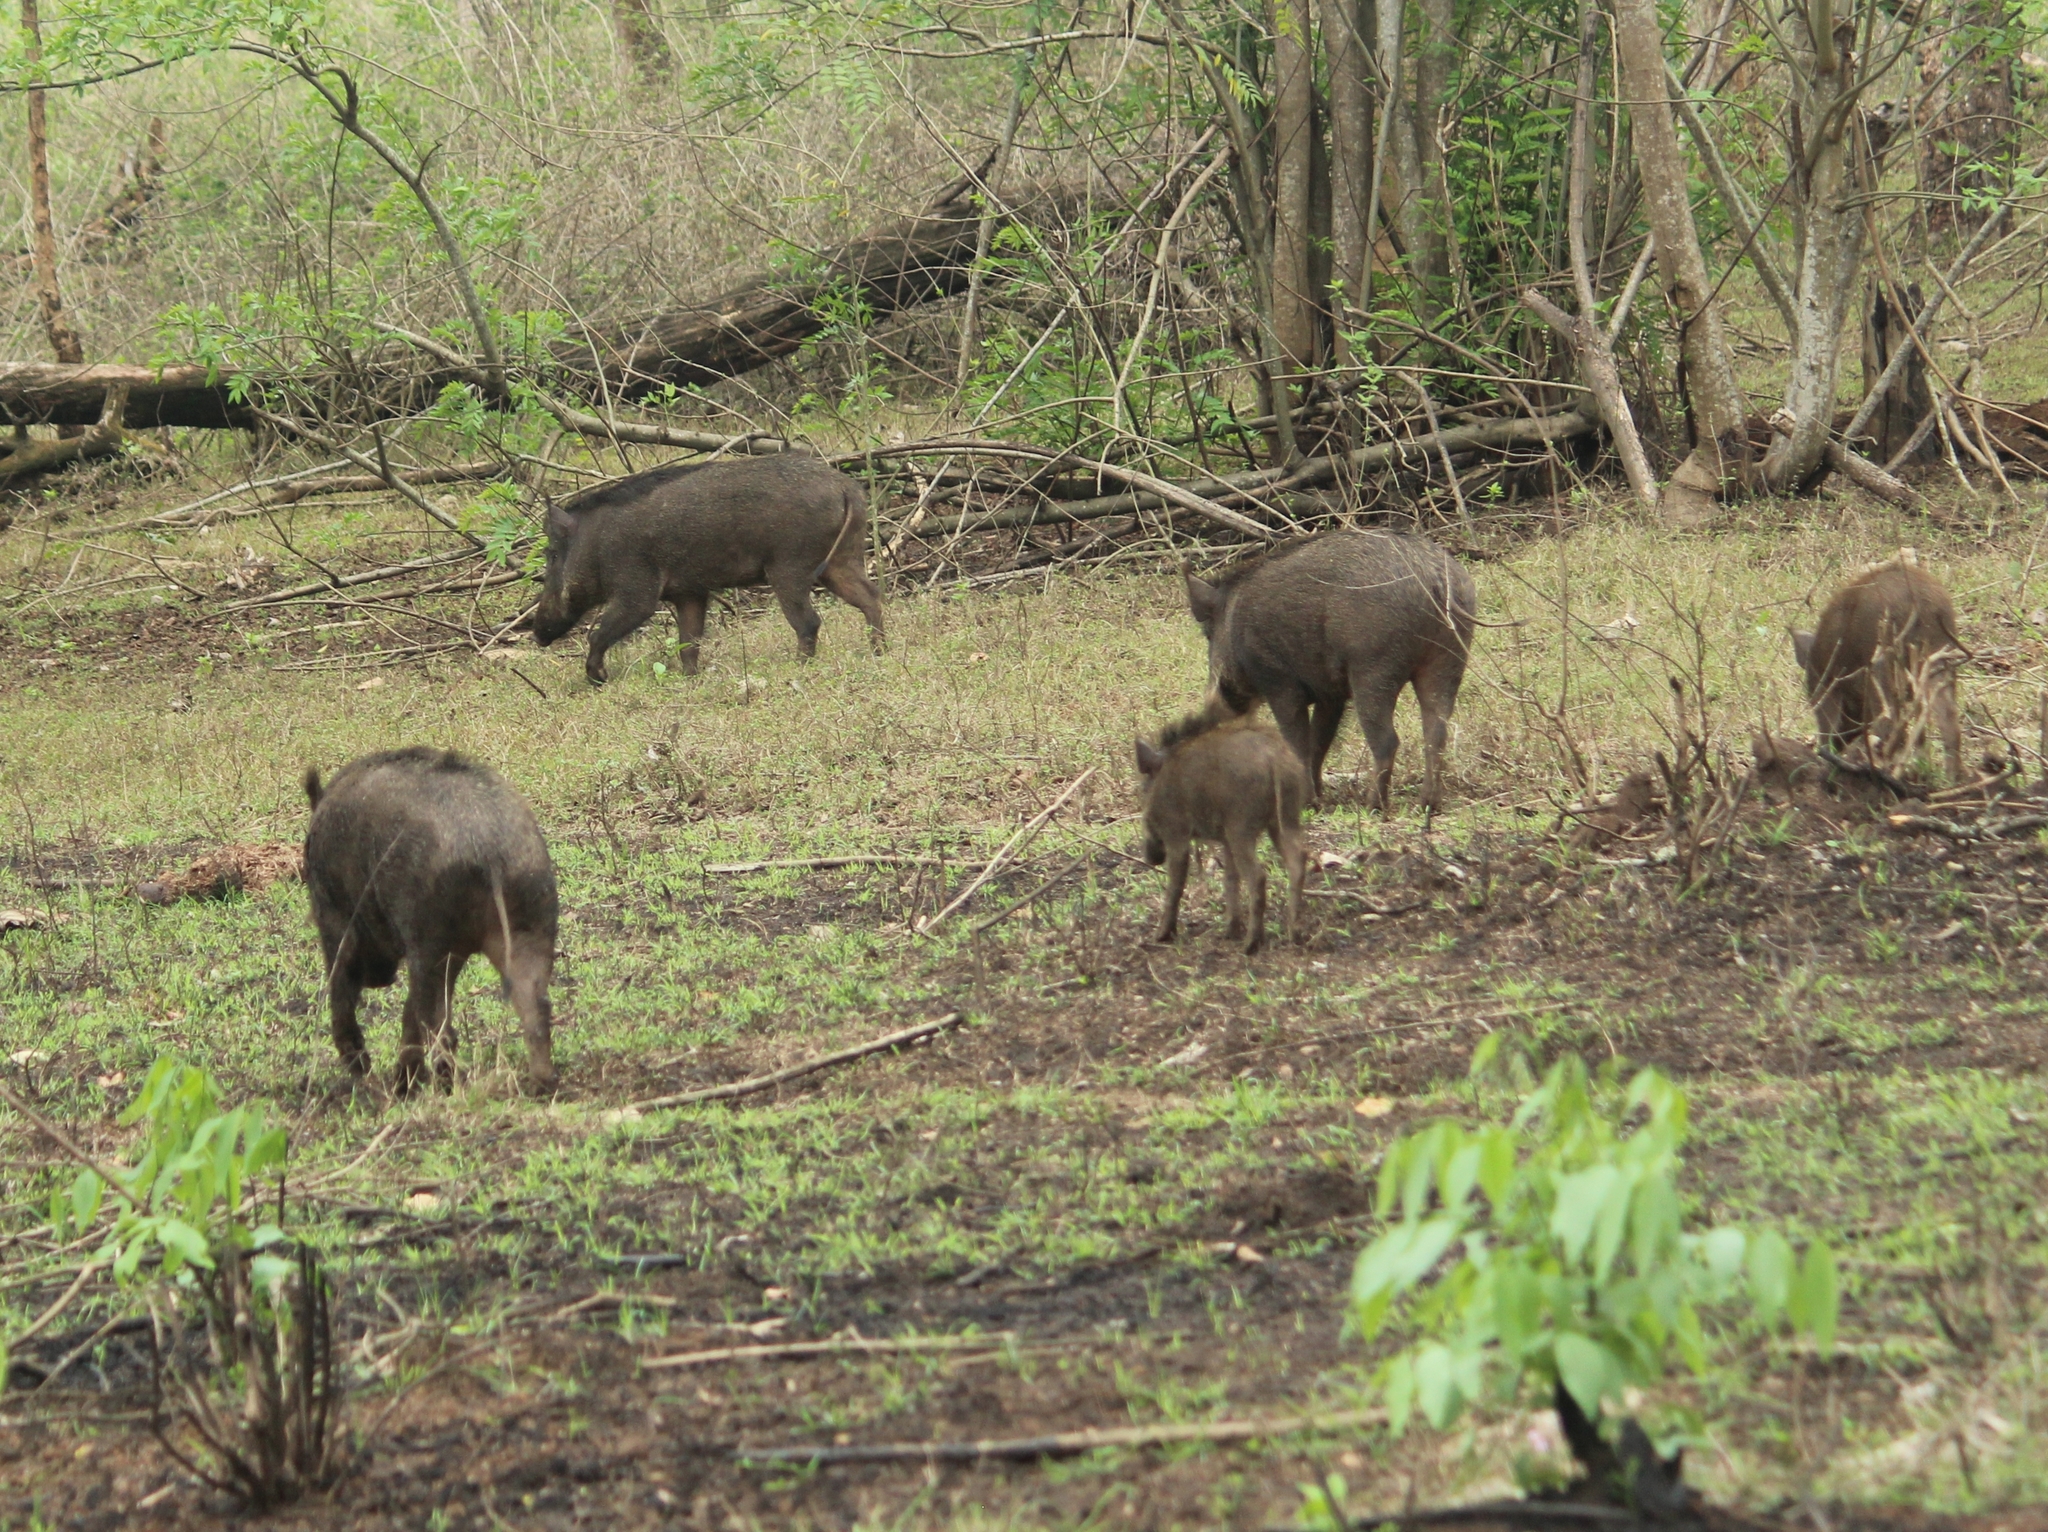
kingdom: Animalia
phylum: Chordata
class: Mammalia
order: Artiodactyla
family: Suidae
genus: Sus
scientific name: Sus scrofa
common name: Wild boar
